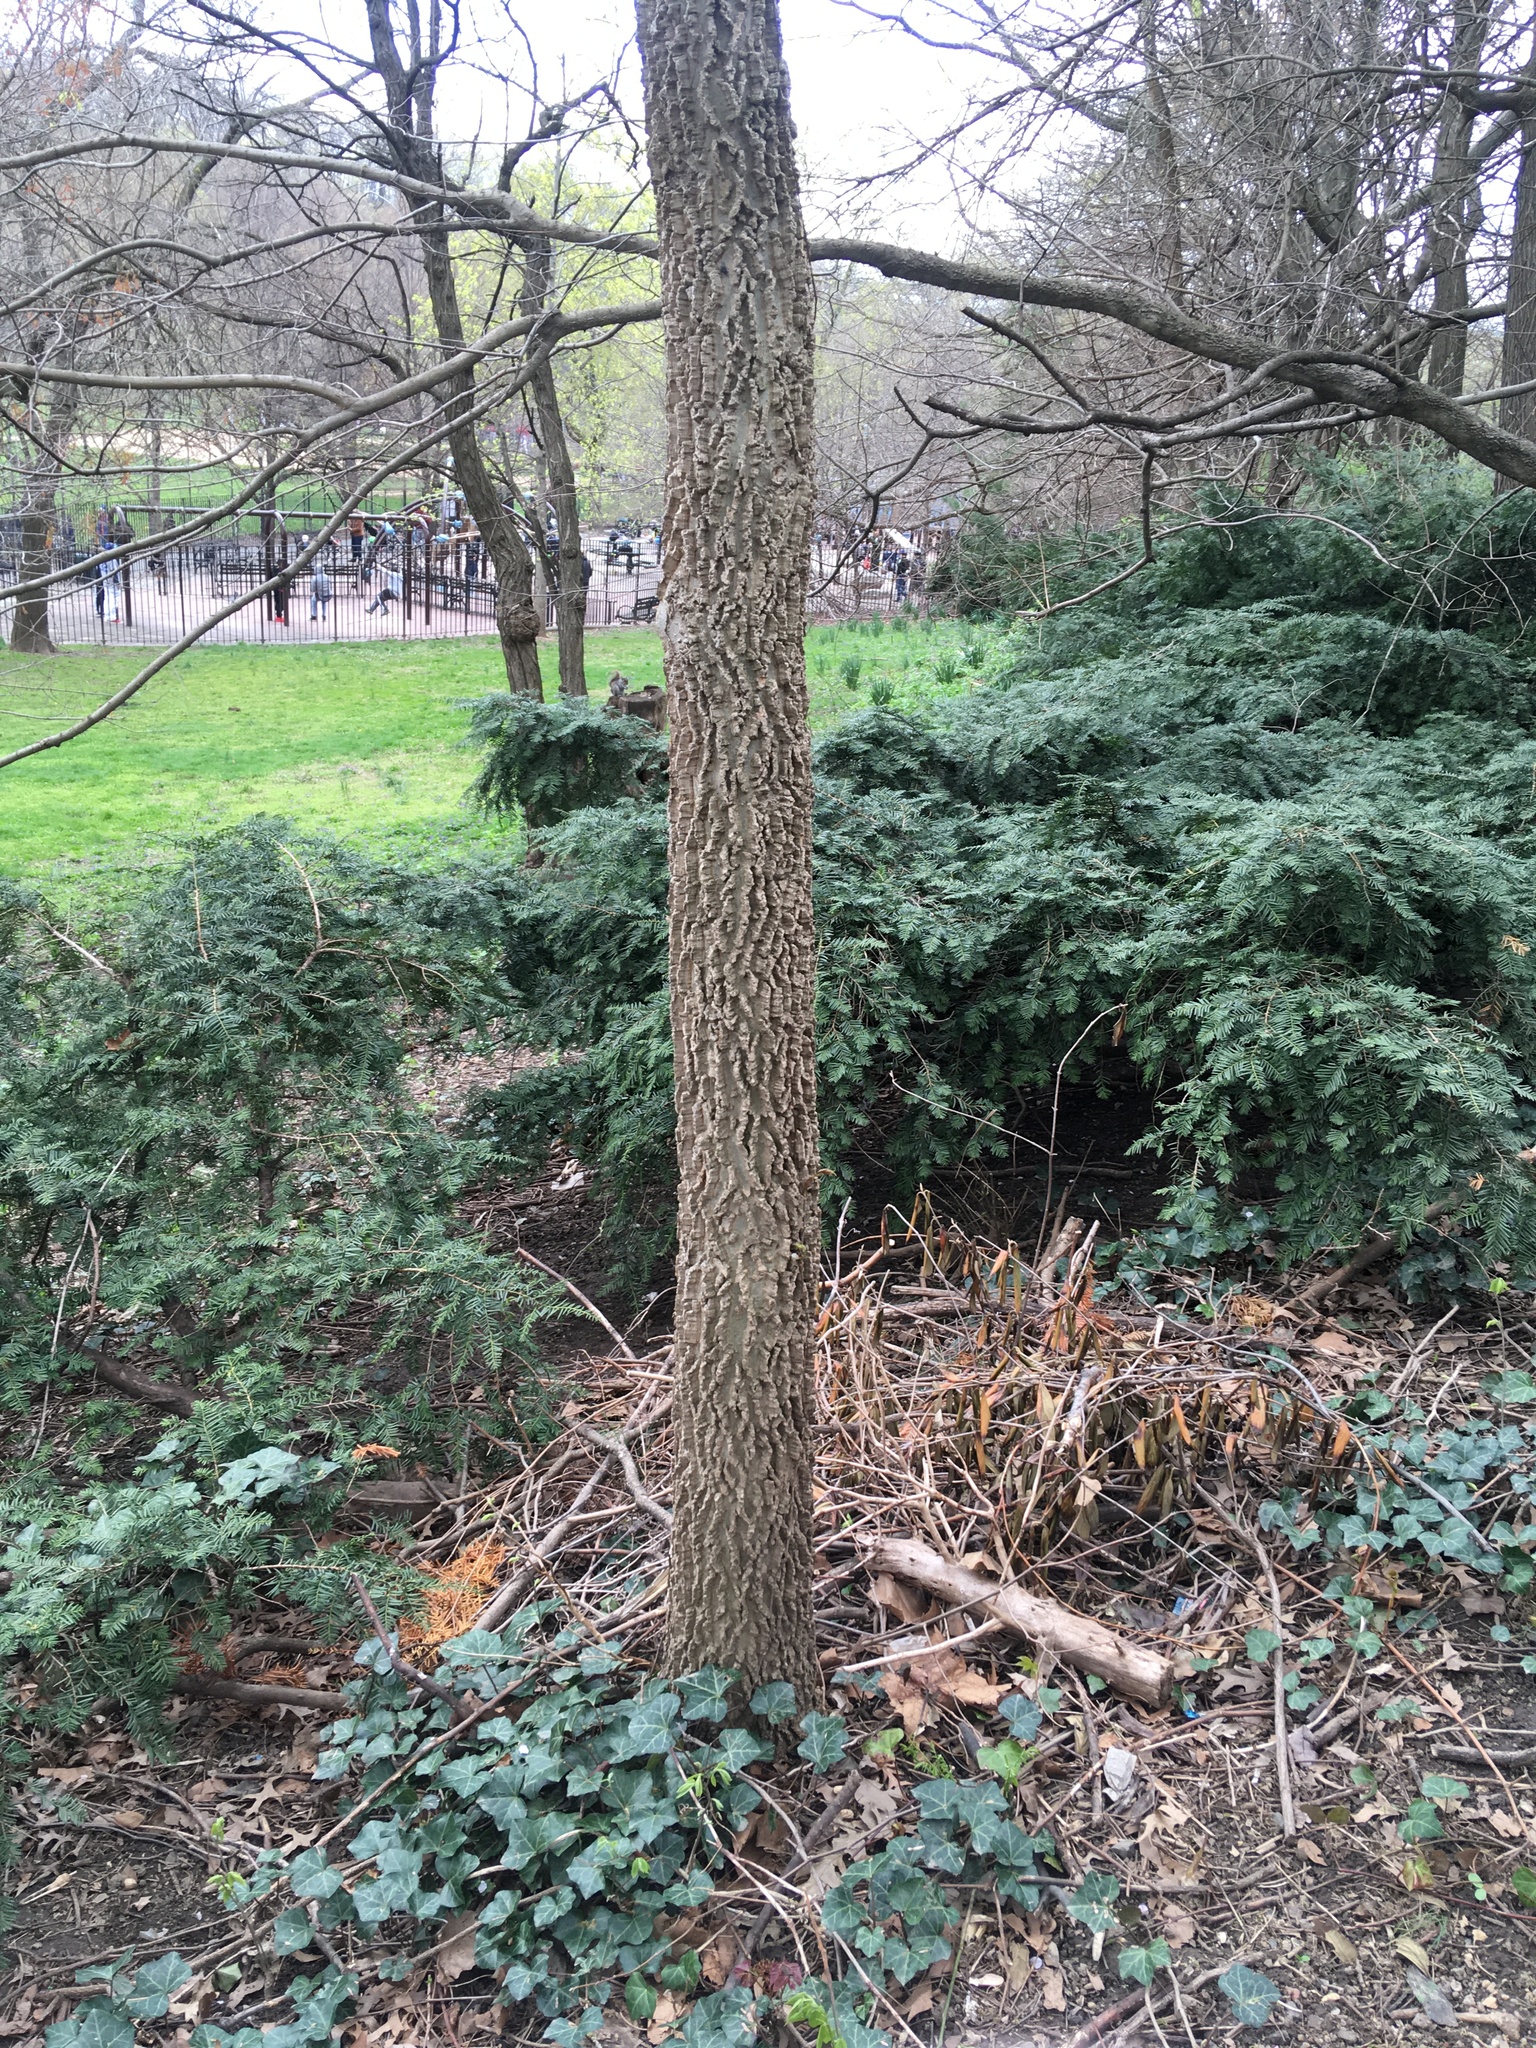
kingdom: Plantae
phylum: Tracheophyta
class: Magnoliopsida
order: Rosales
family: Cannabaceae
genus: Celtis
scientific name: Celtis occidentalis
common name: Common hackberry
